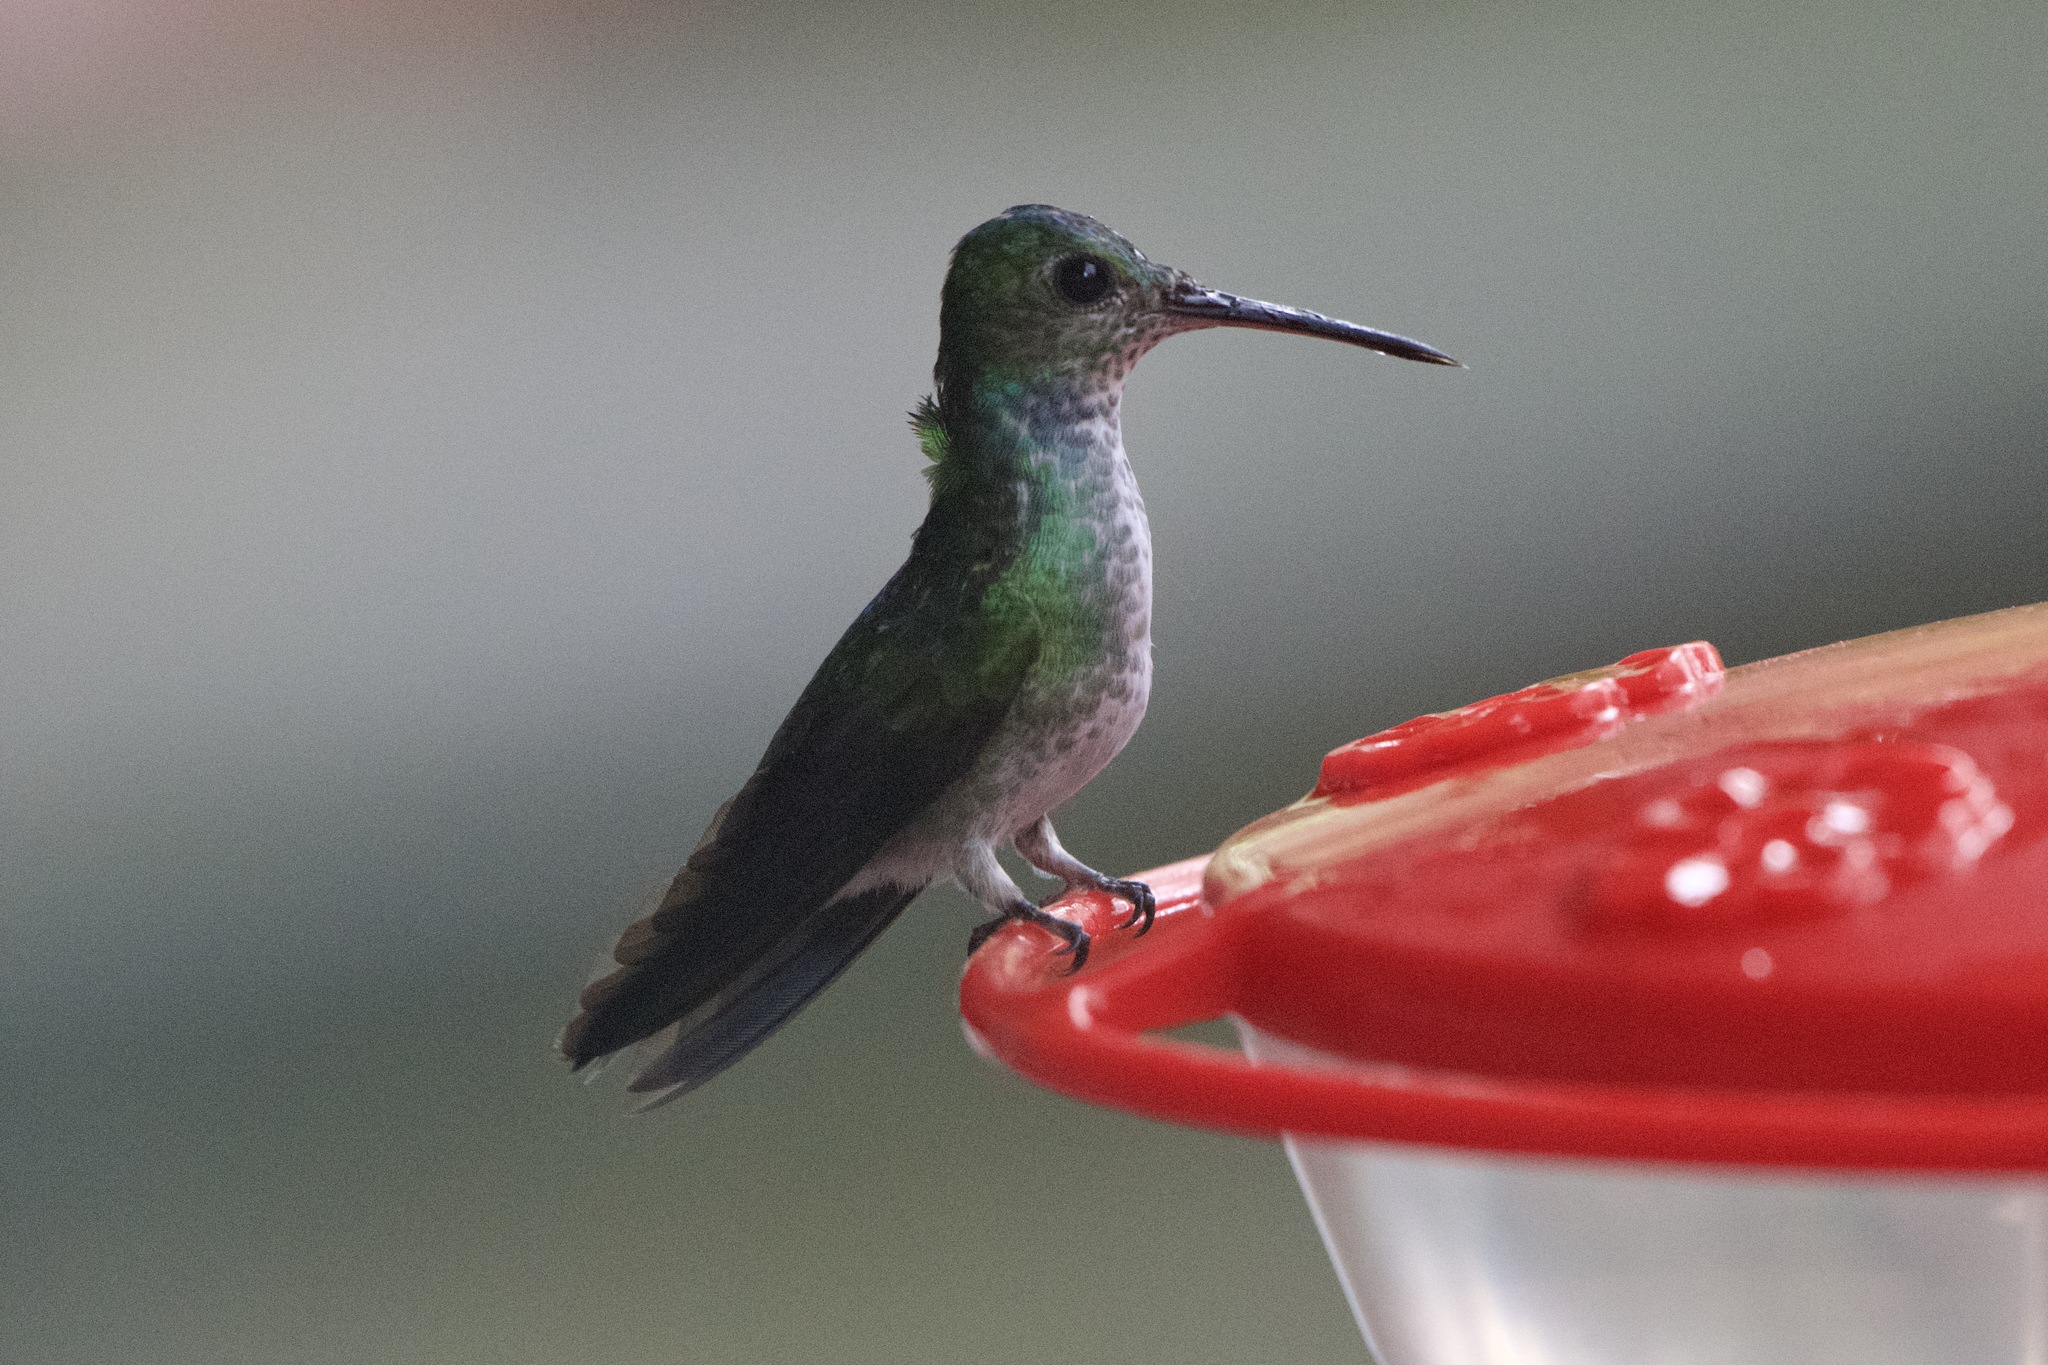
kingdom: Animalia
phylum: Chordata
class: Aves
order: Apodiformes
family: Trochilidae
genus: Polyerata
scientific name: Polyerata amabilis
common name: Blue-chested hummingbird
